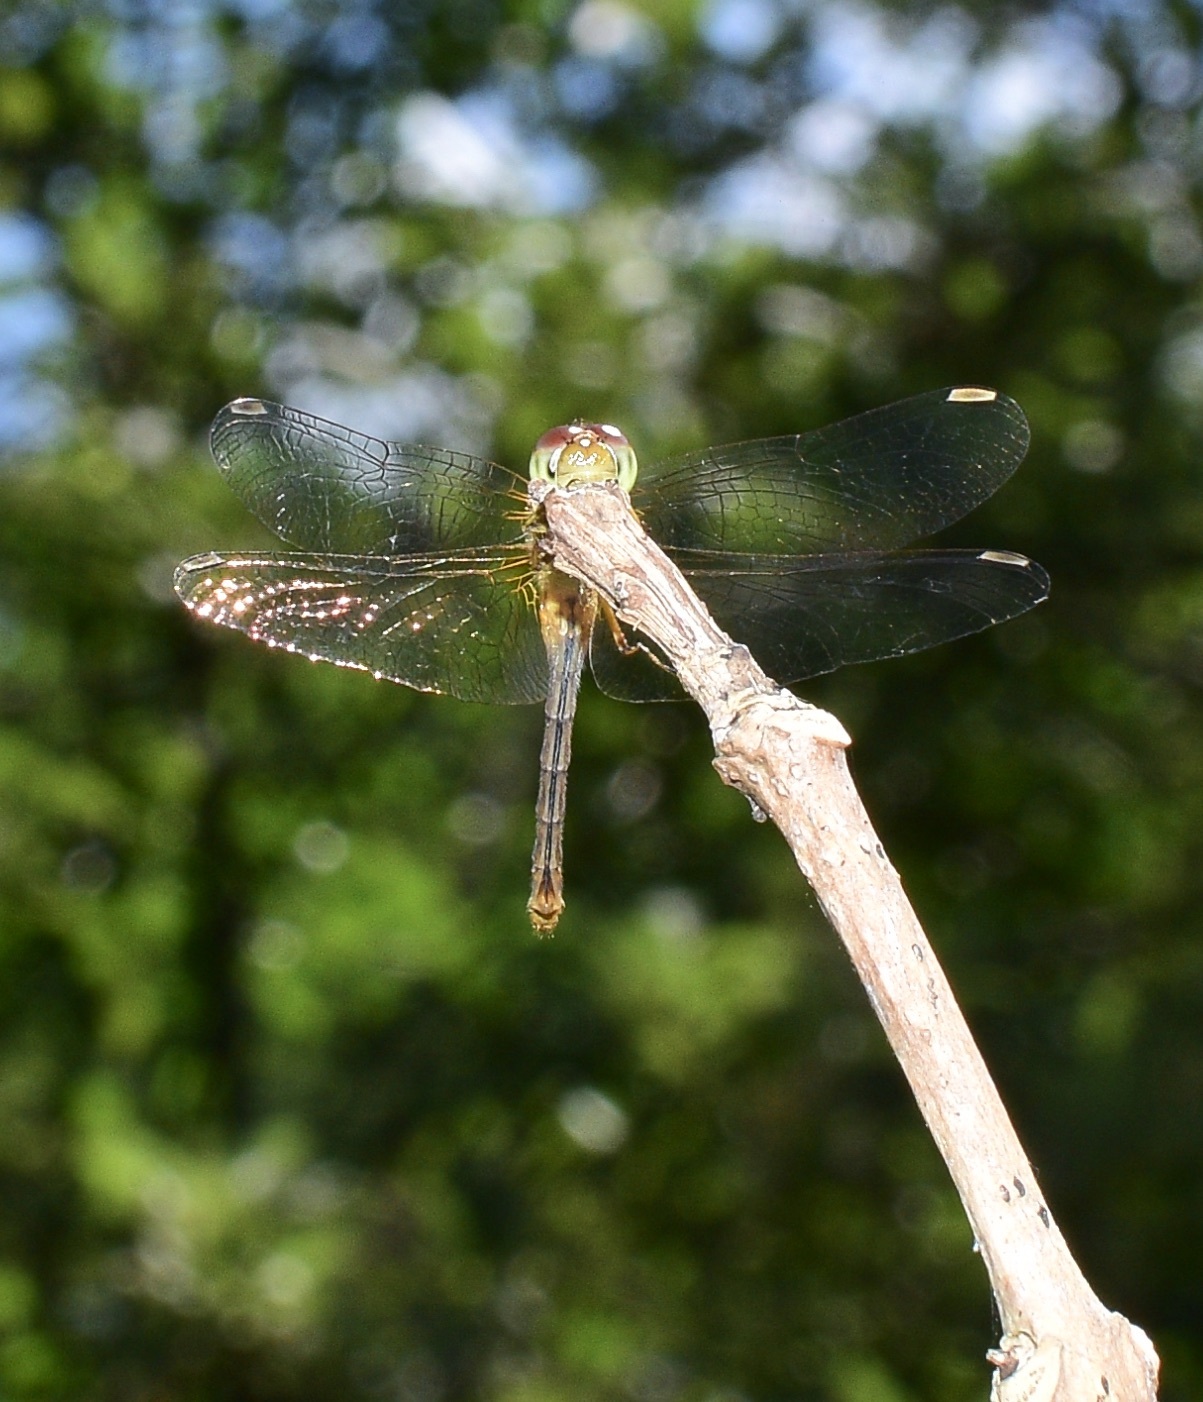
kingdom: Animalia
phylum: Arthropoda
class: Insecta
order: Odonata
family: Libellulidae
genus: Sympetrum
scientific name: Sympetrum vicinum
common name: Autumn meadowhawk
